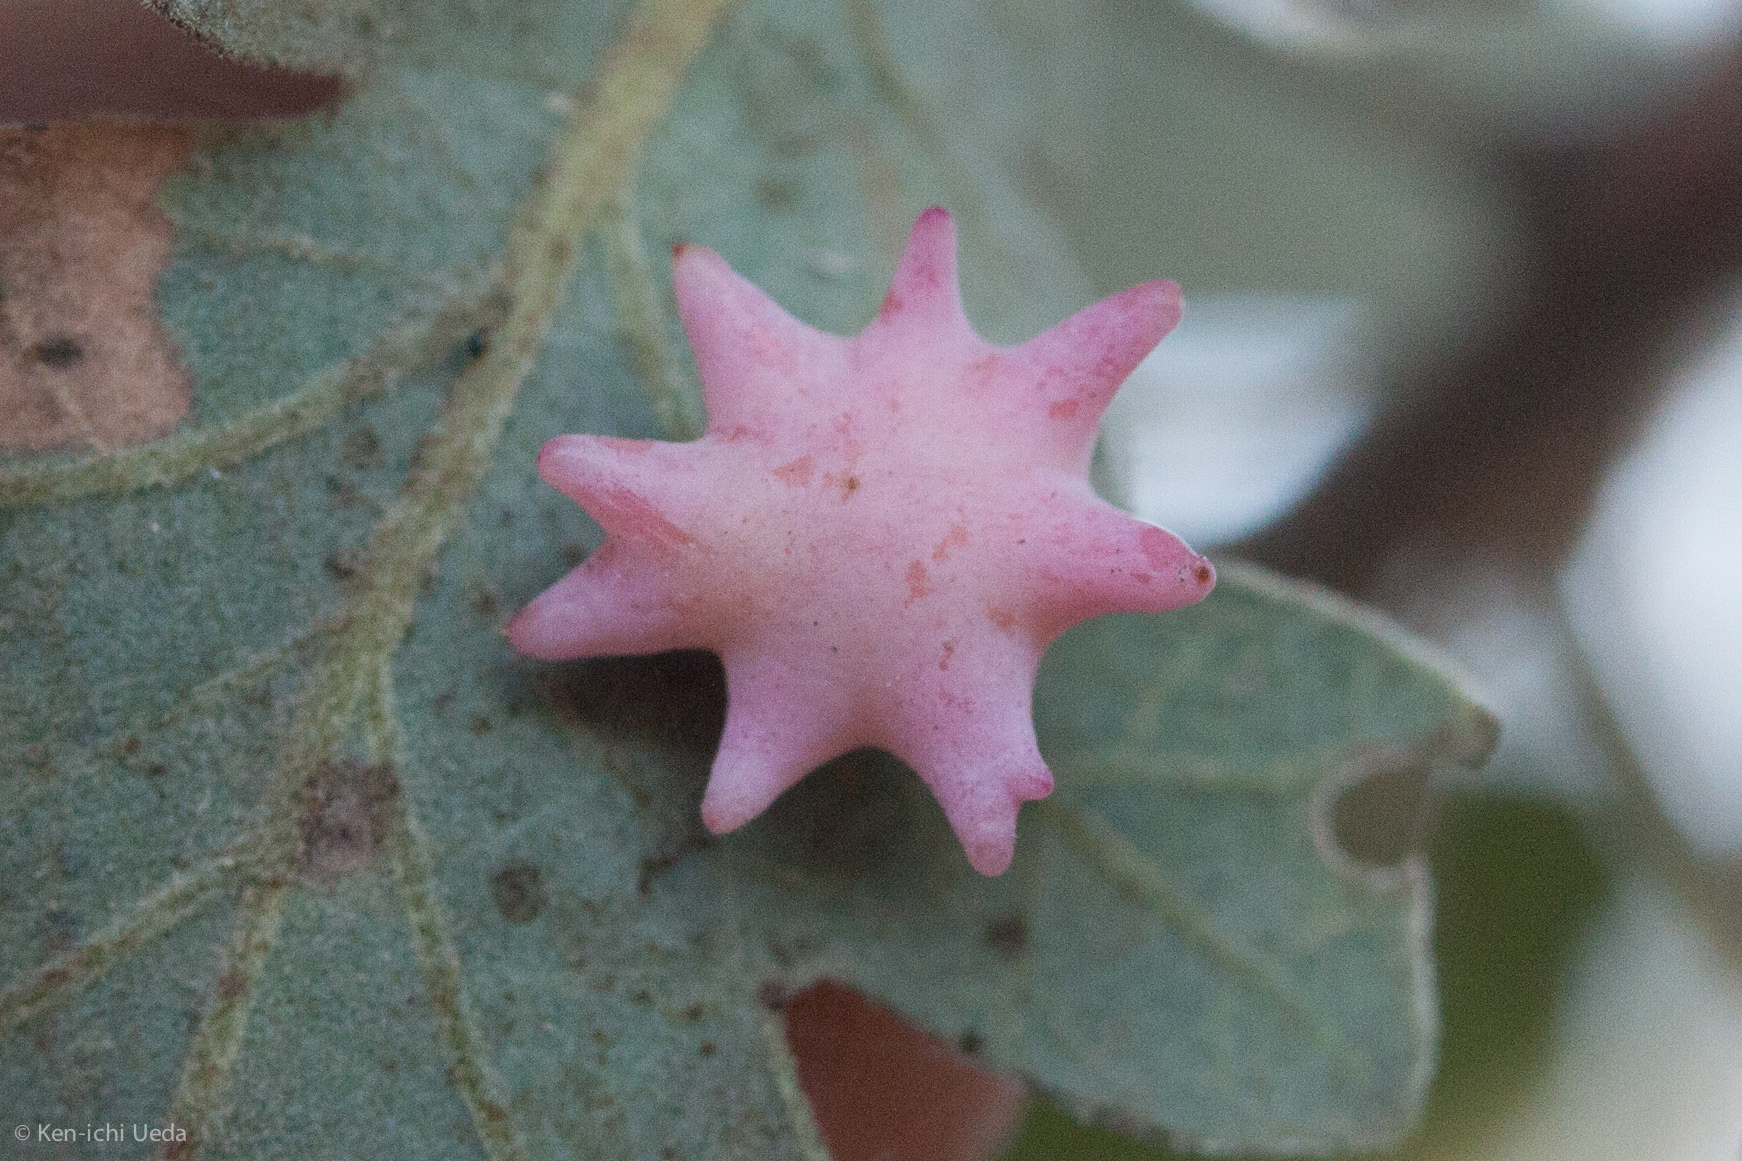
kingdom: Animalia
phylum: Arthropoda
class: Insecta
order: Hymenoptera
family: Cynipidae
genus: Cynips
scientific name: Cynips douglasi
